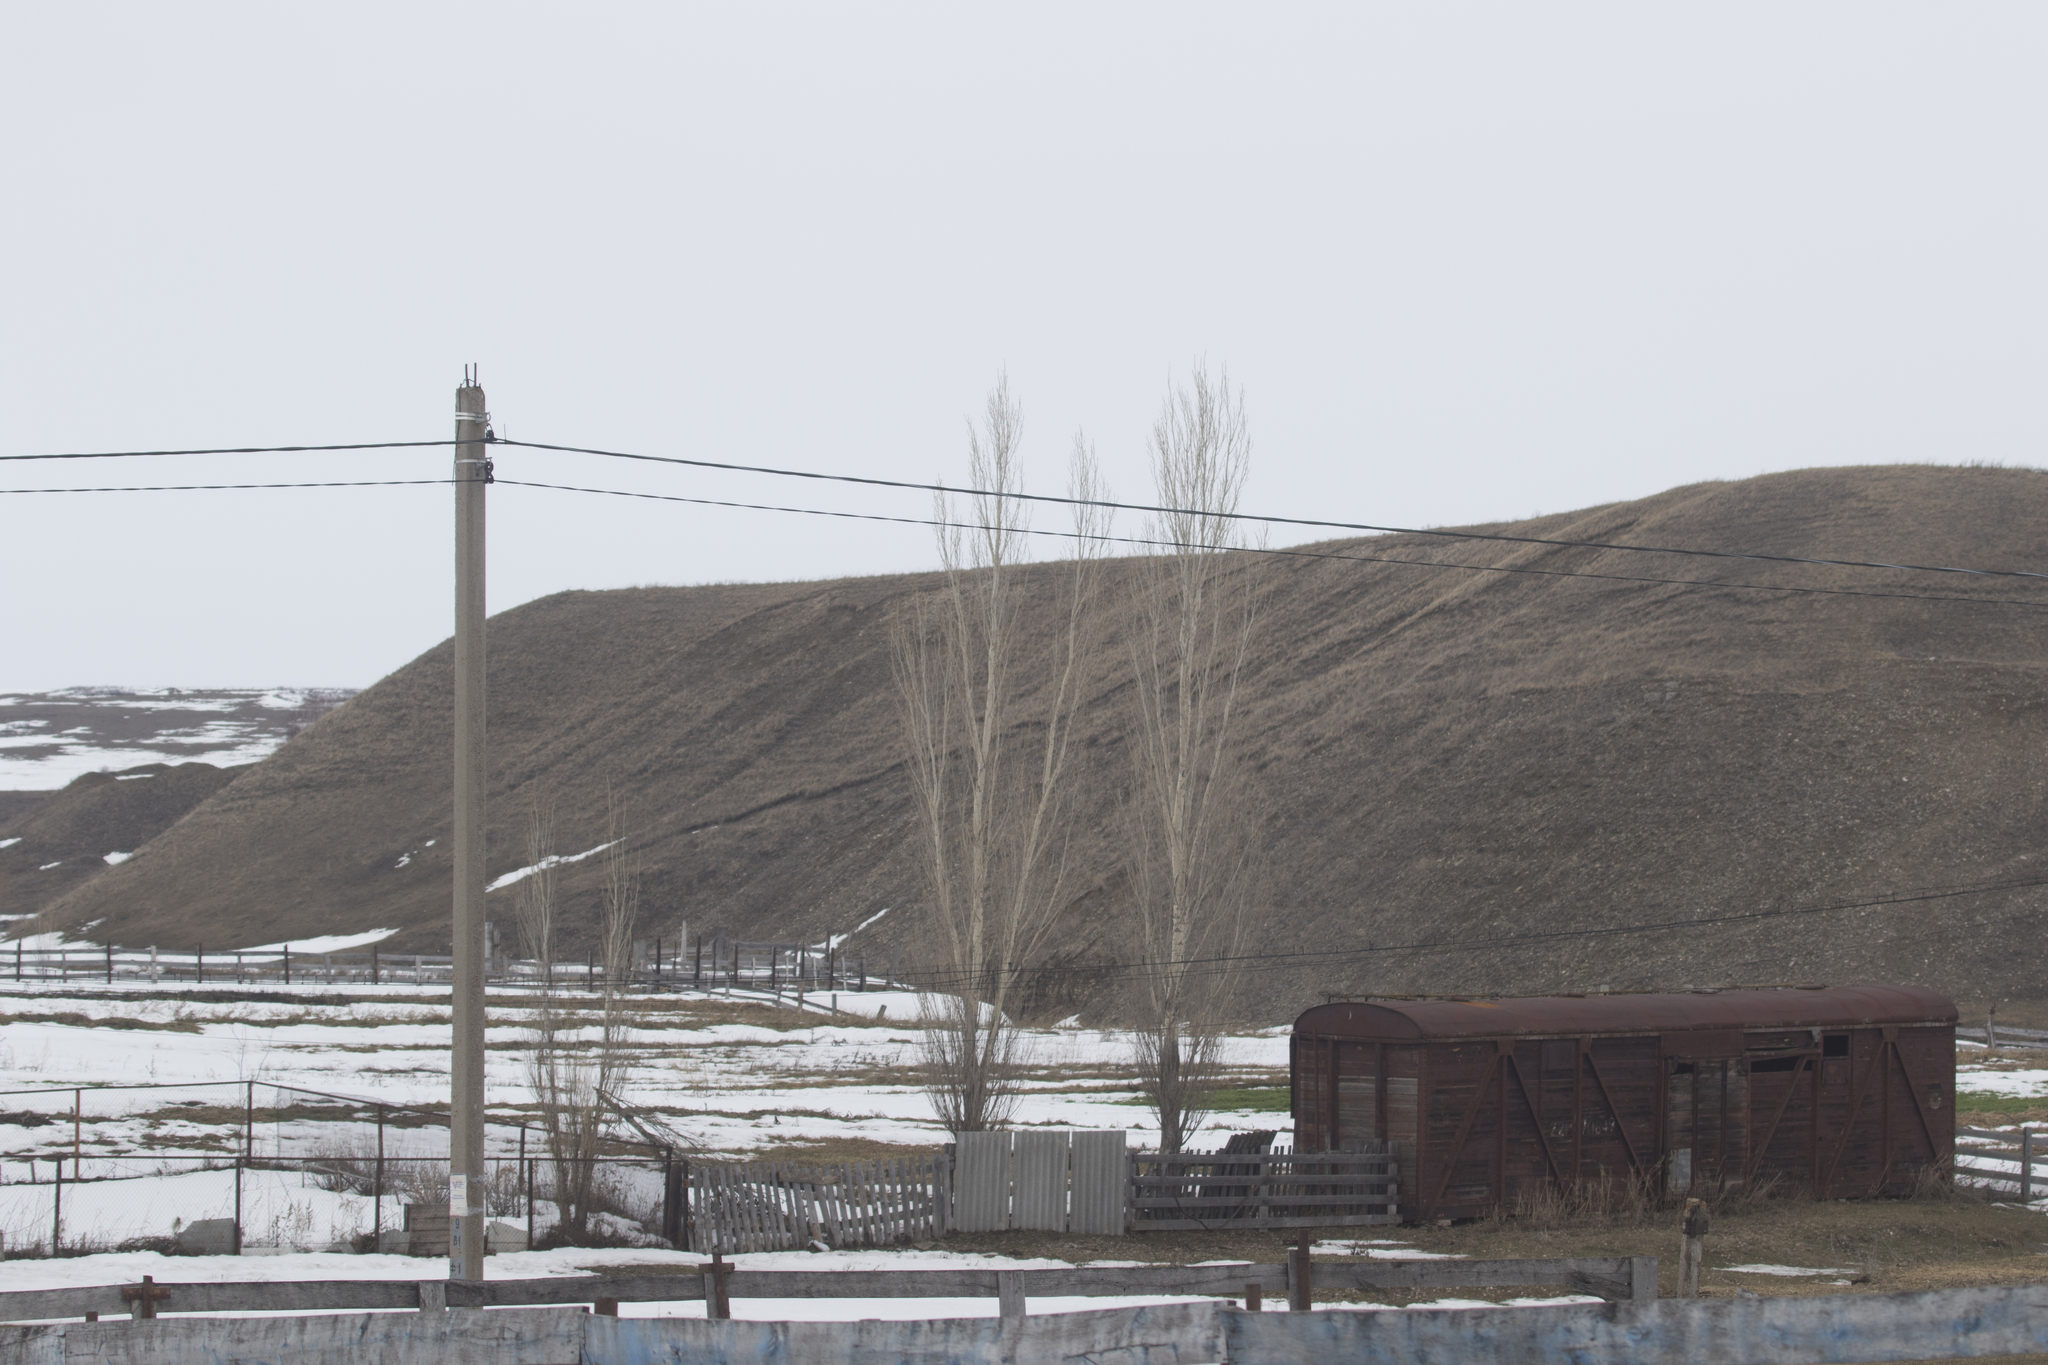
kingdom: Plantae
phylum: Tracheophyta
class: Magnoliopsida
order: Malpighiales
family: Salicaceae
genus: Populus
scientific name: Populus nigra
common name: Black poplar
